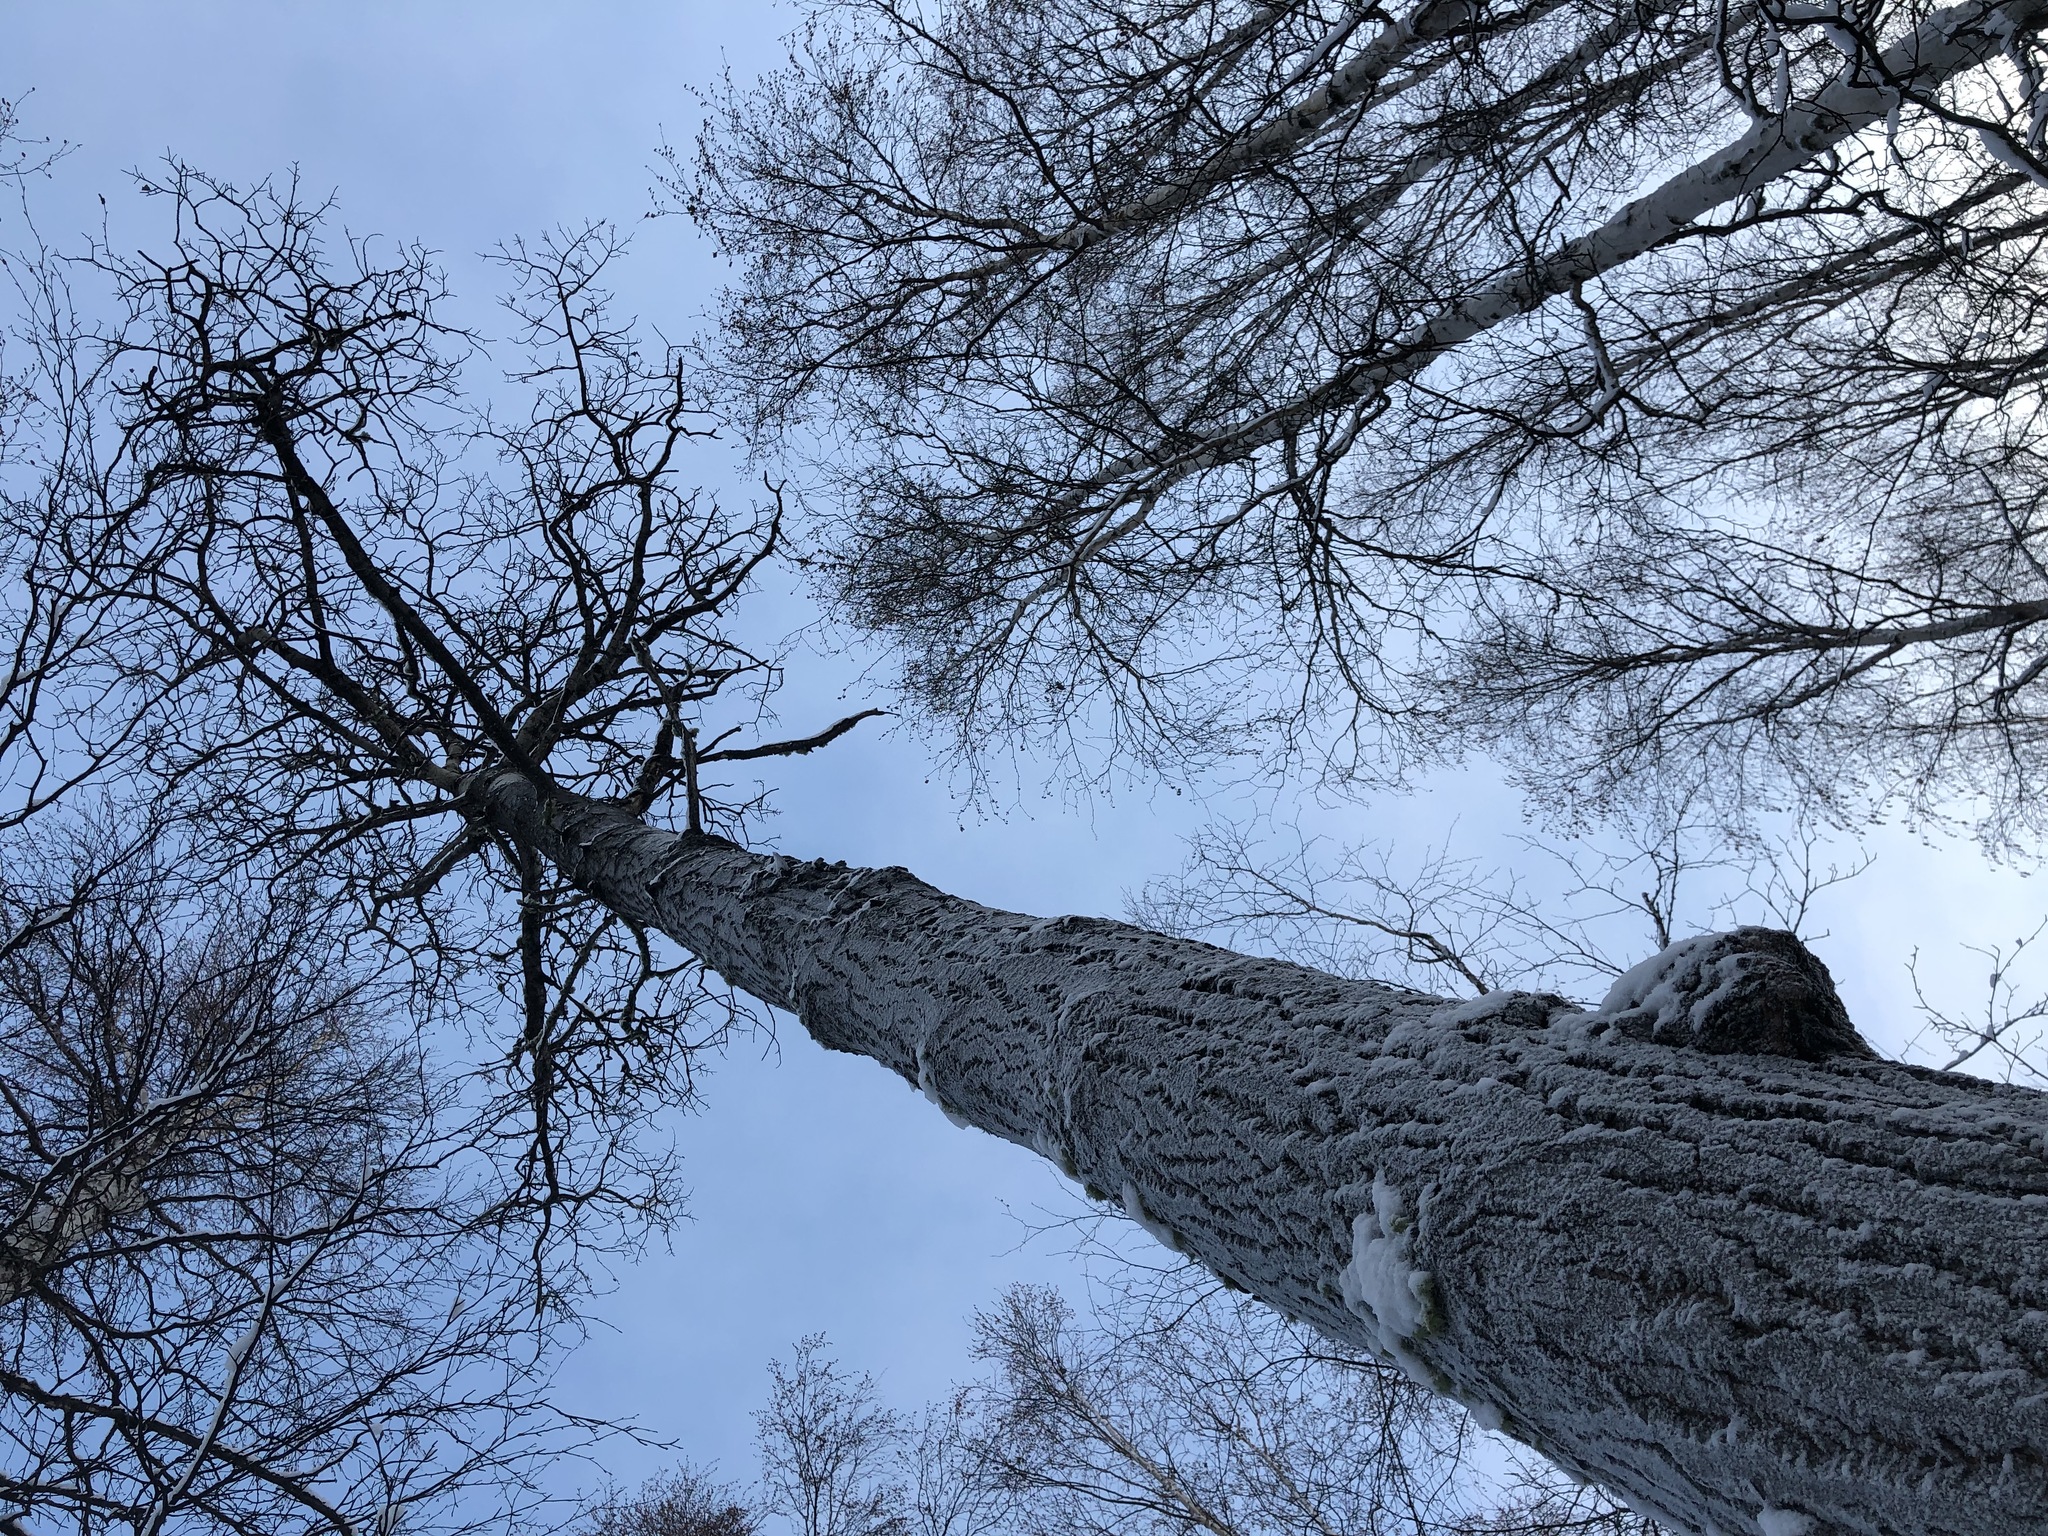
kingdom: Plantae
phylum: Tracheophyta
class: Magnoliopsida
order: Malpighiales
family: Salicaceae
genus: Populus
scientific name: Populus balsamifera
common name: Balsam poplar
